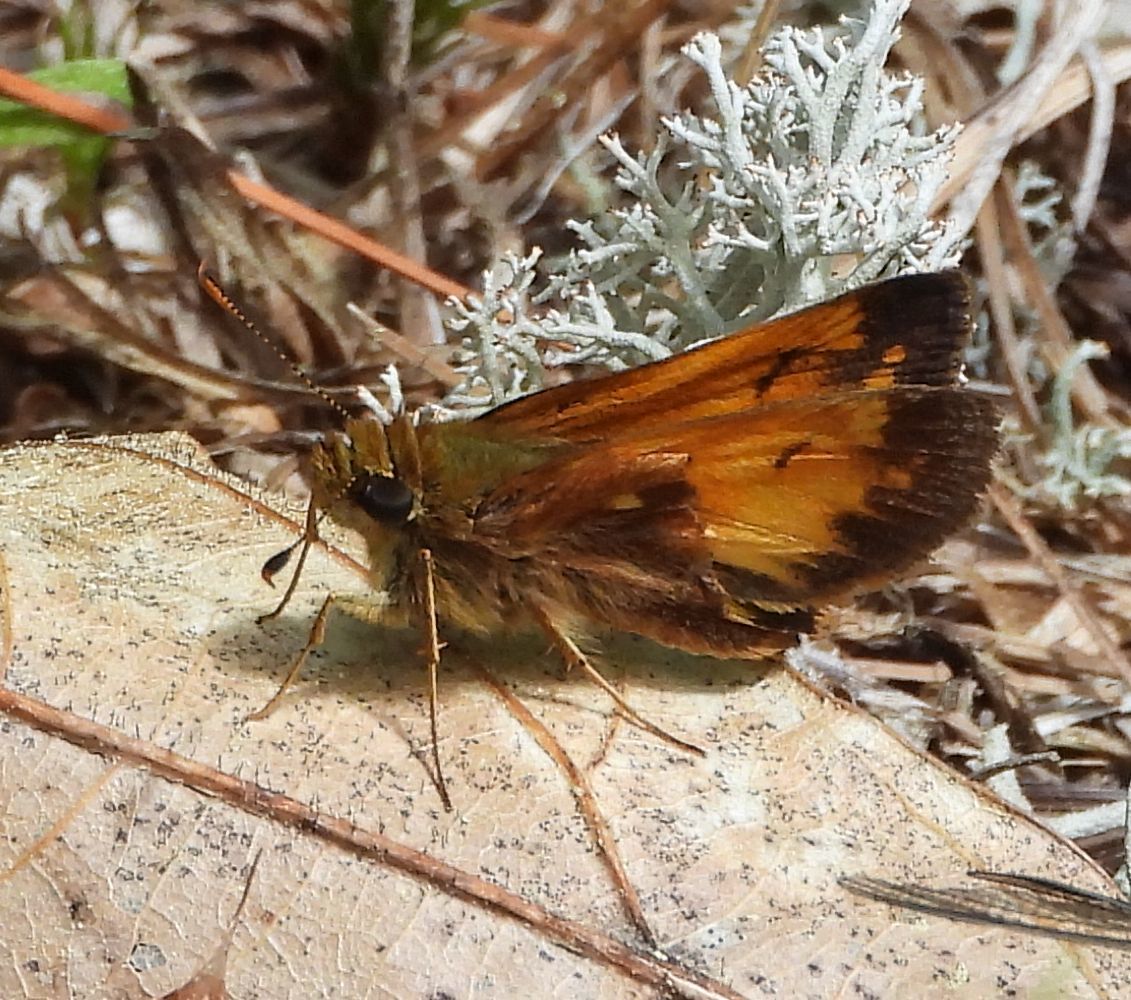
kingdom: Animalia
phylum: Arthropoda
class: Insecta
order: Lepidoptera
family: Hesperiidae
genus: Lon
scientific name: Lon hobomok
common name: Hobomok skipper
